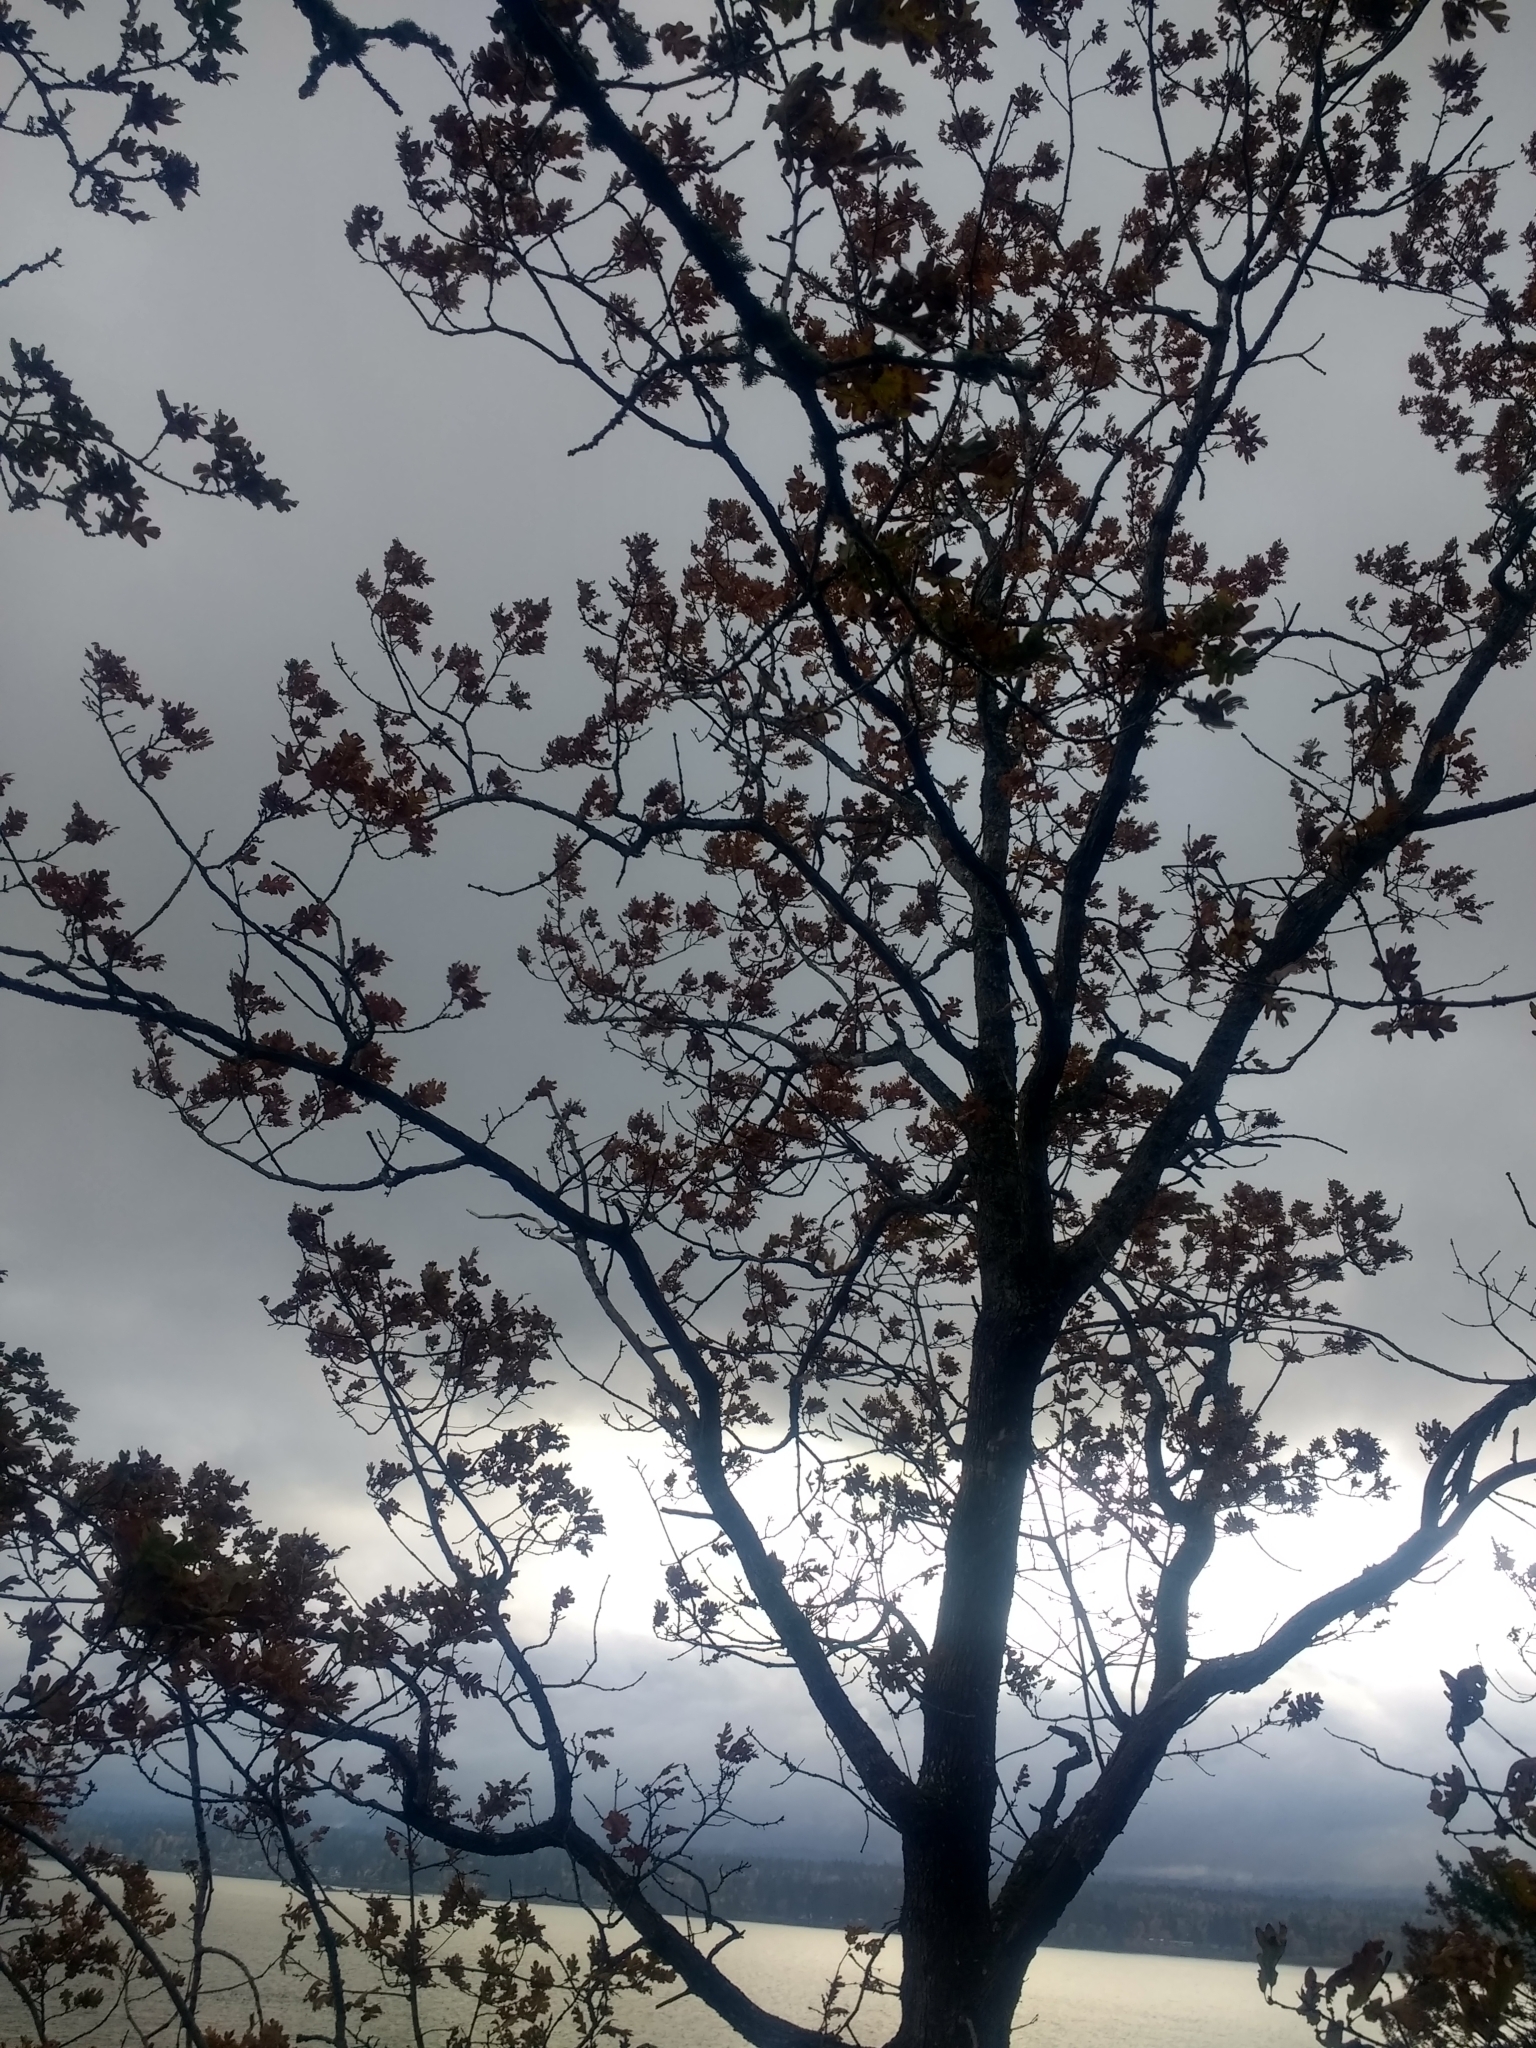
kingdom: Plantae
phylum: Tracheophyta
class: Magnoliopsida
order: Fagales
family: Fagaceae
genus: Quercus
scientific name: Quercus garryana
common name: Garry oak
